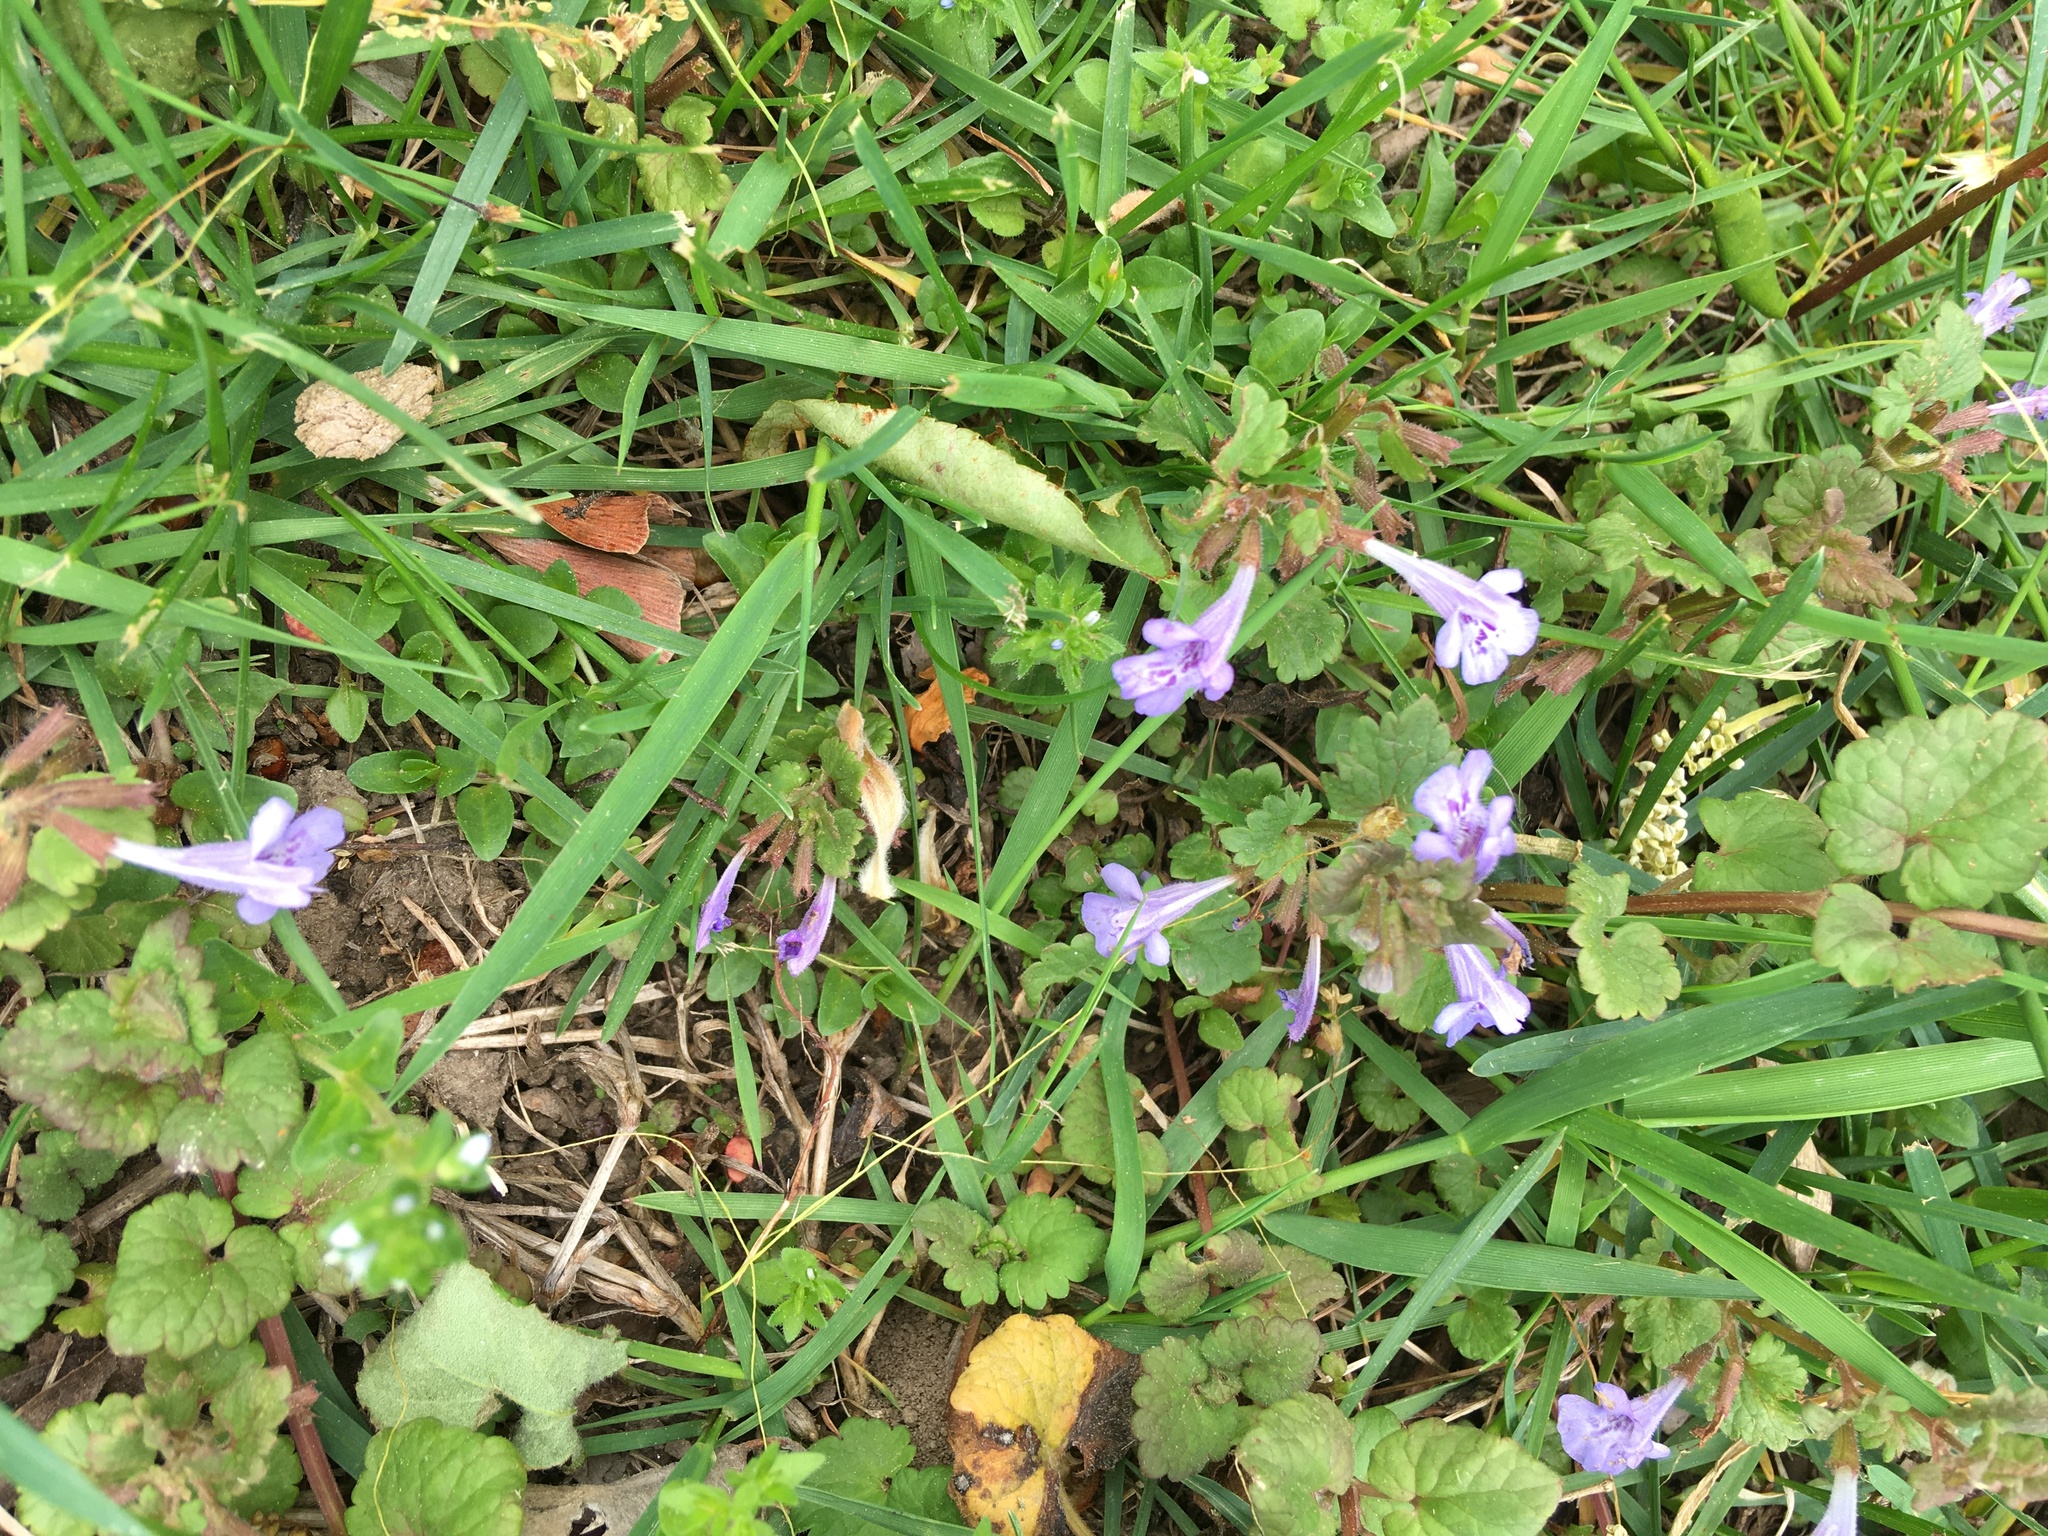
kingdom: Plantae
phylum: Tracheophyta
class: Magnoliopsida
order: Lamiales
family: Lamiaceae
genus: Glechoma
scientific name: Glechoma hederacea
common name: Ground ivy
